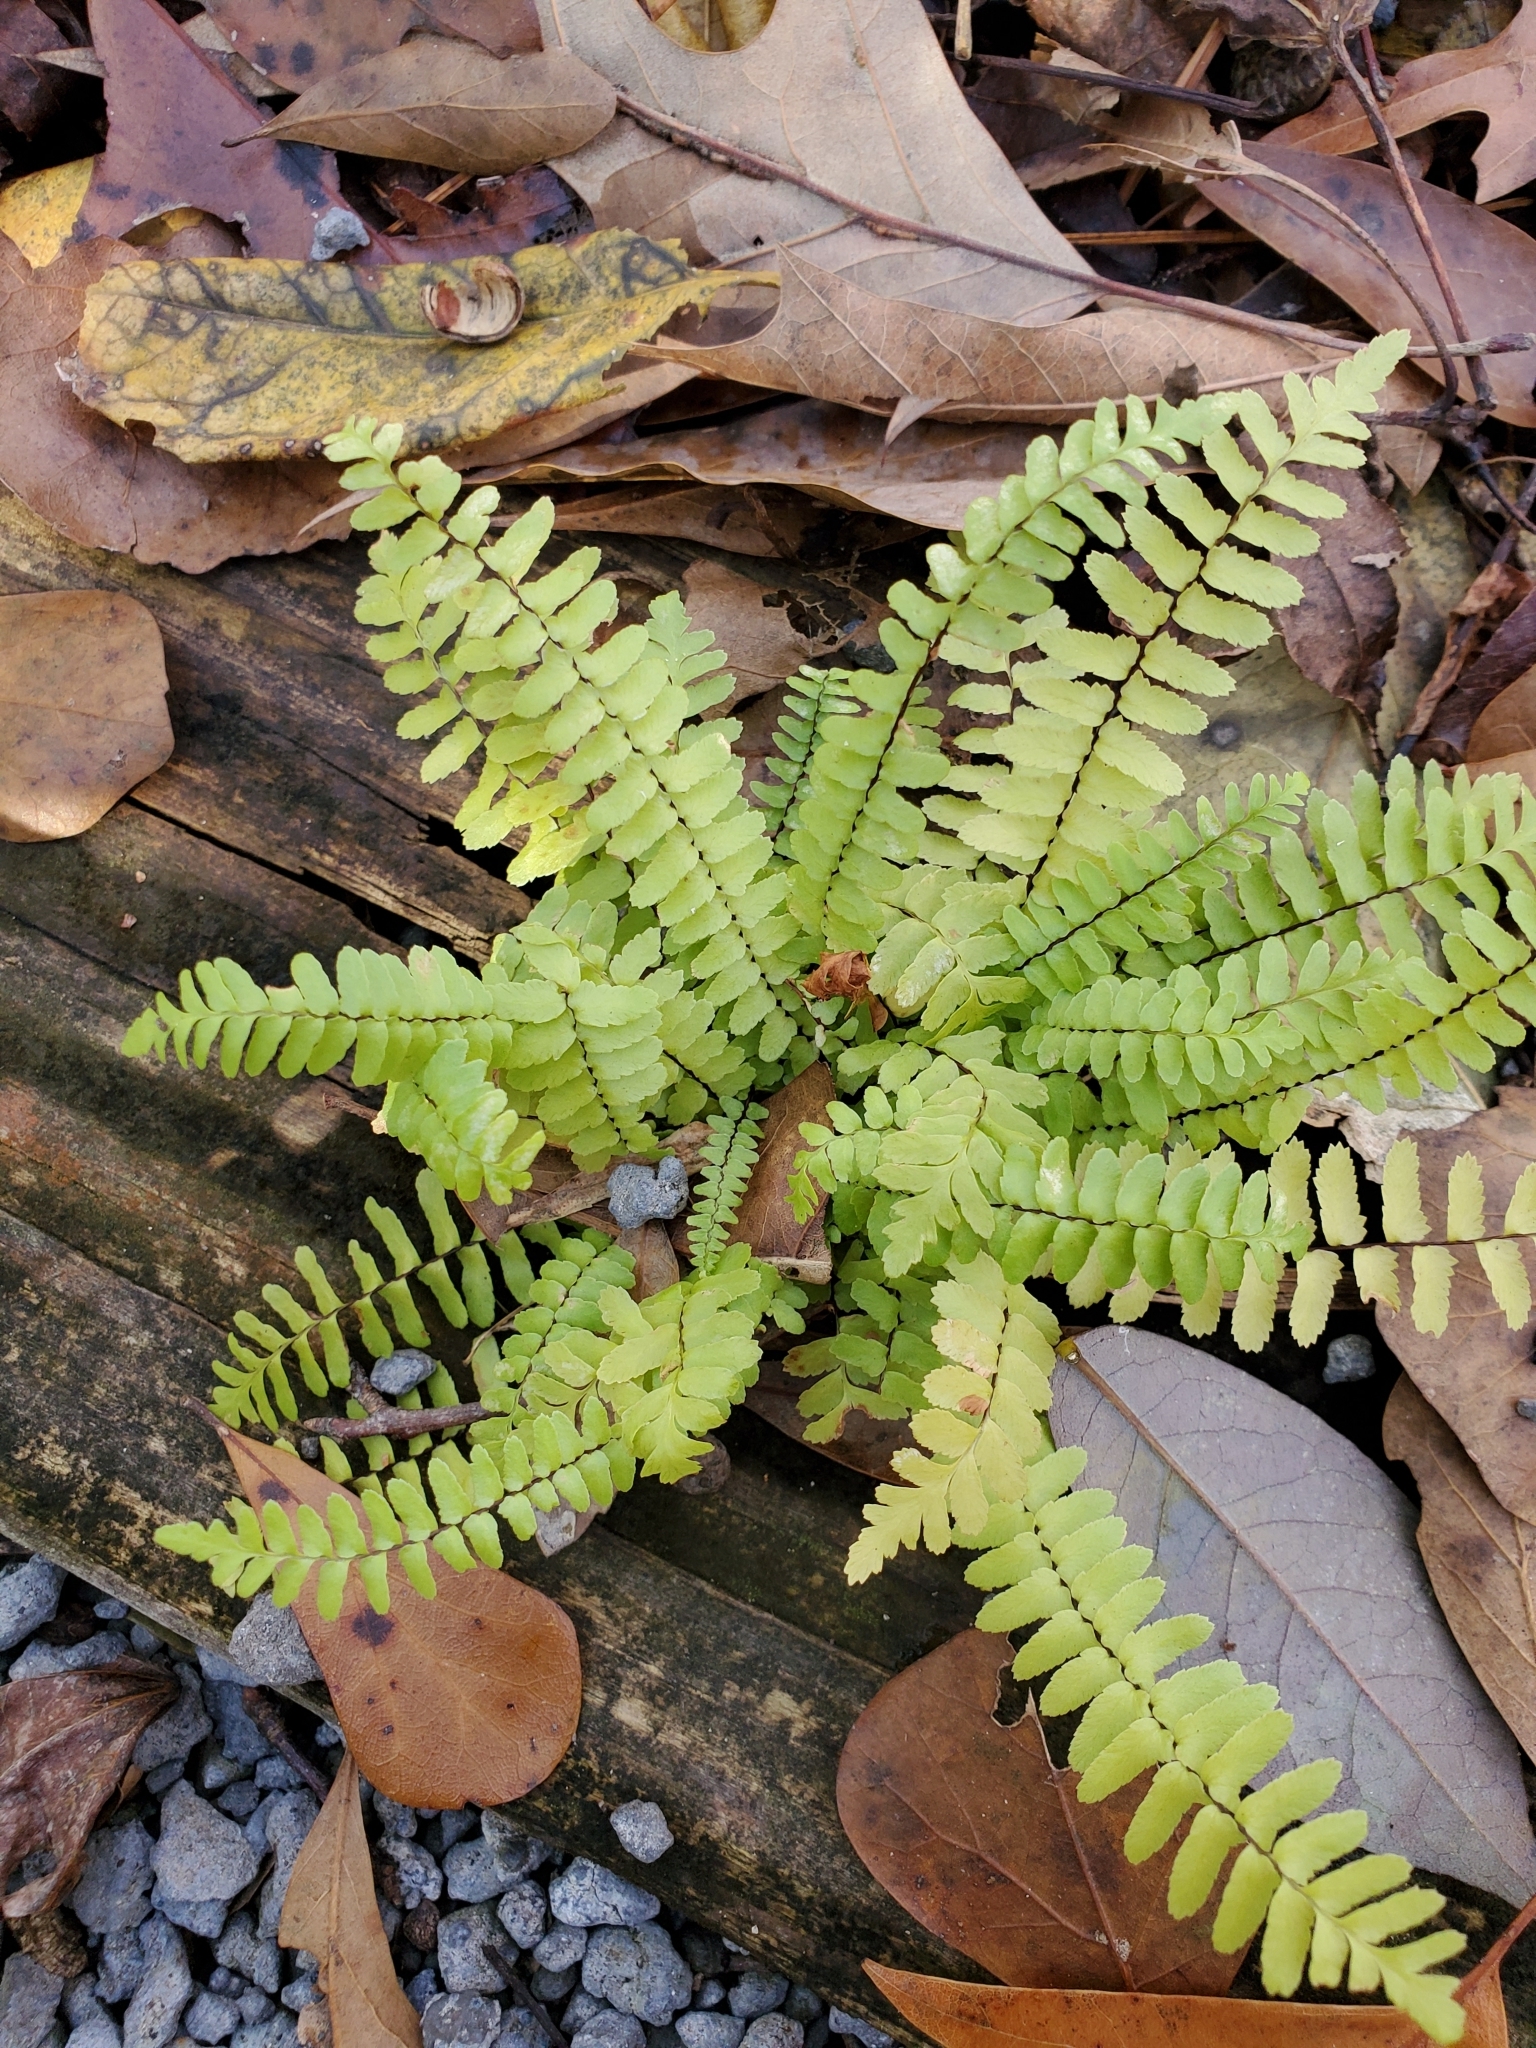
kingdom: Plantae
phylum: Tracheophyta
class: Polypodiopsida
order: Polypodiales
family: Aspleniaceae
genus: Asplenium
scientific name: Asplenium platyneuron
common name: Ebony spleenwort
